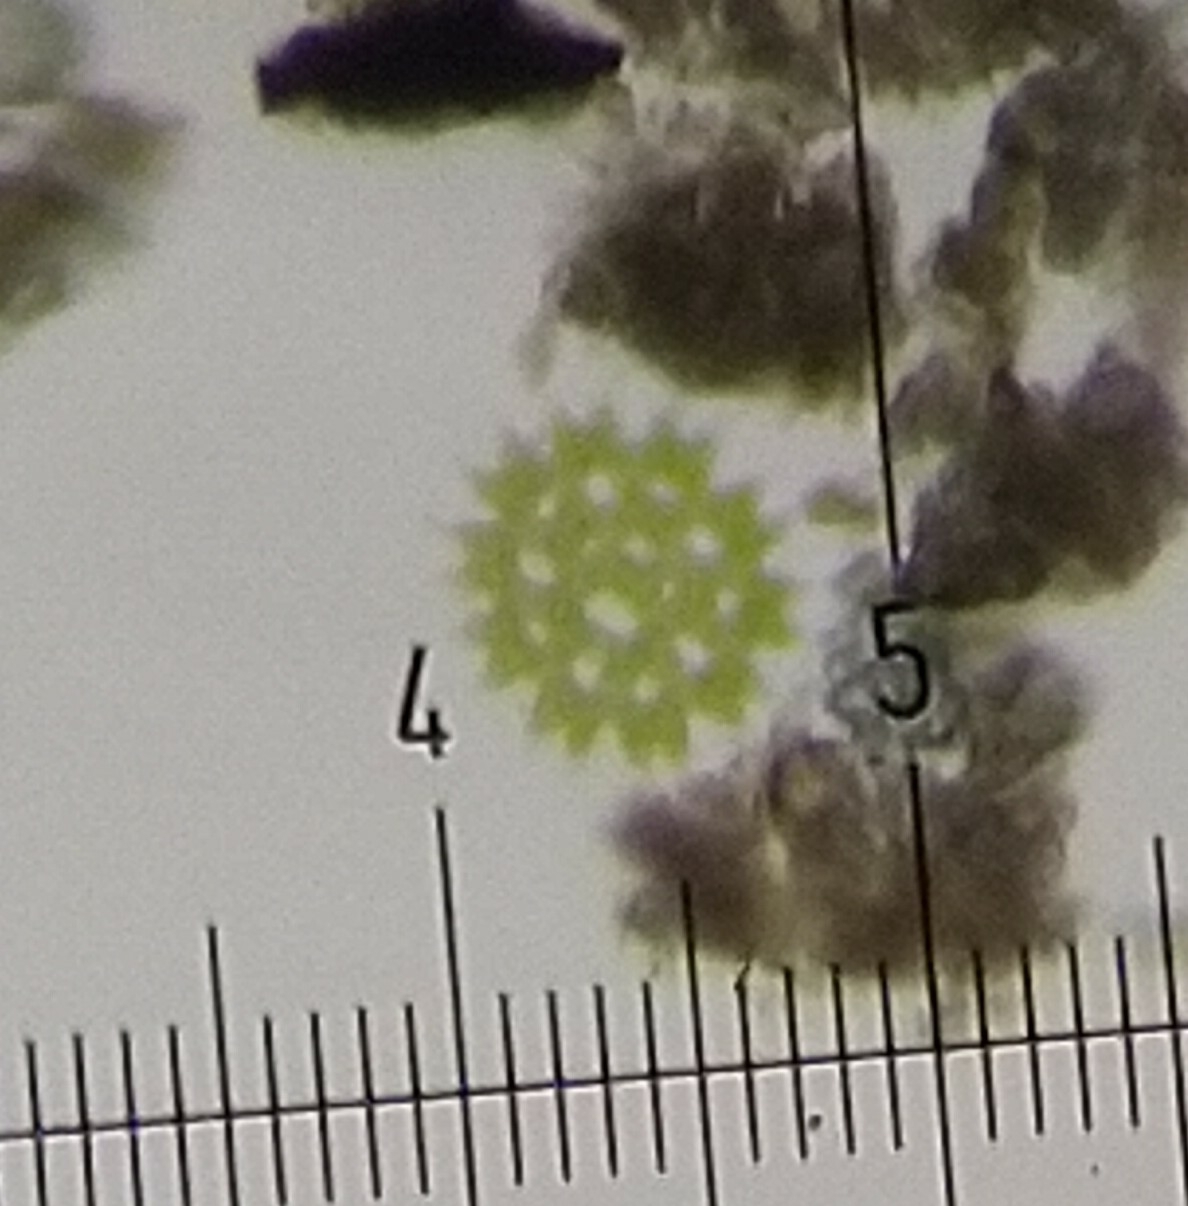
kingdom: Plantae
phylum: Chlorophyta
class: Chlorophyceae
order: Sphaeropleales
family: Hydrodictyaceae
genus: Pediastrum
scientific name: Pediastrum duplex
